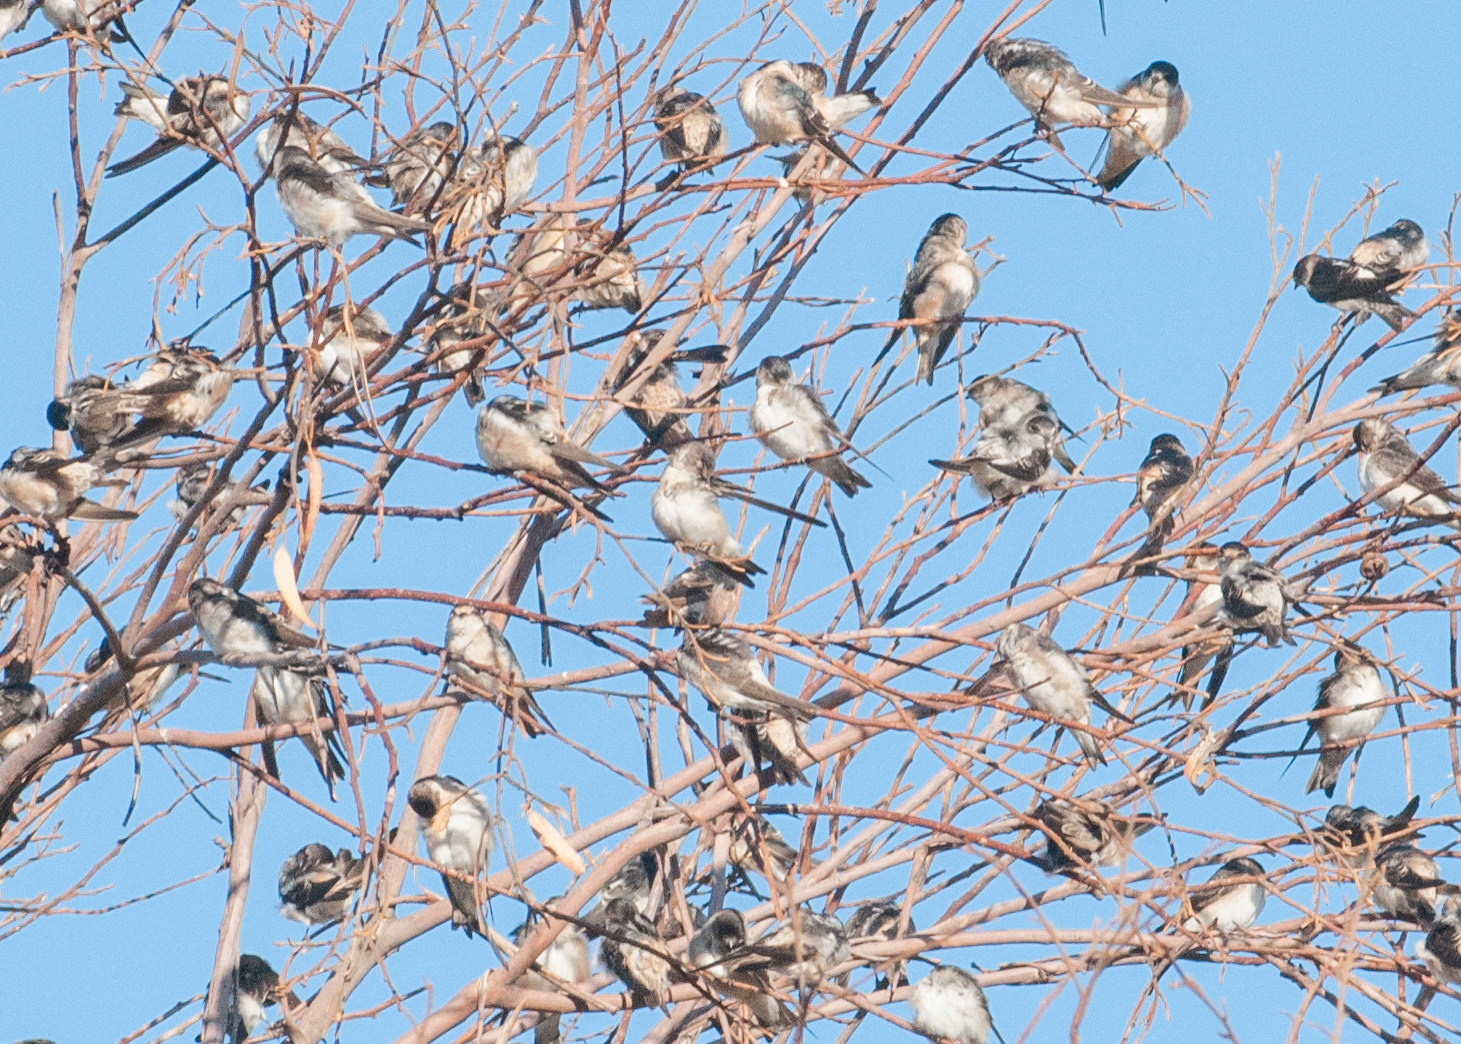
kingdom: Animalia
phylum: Chordata
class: Aves
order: Passeriformes
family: Hirundinidae
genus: Petrochelidon
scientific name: Petrochelidon nigricans
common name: Tree martin
